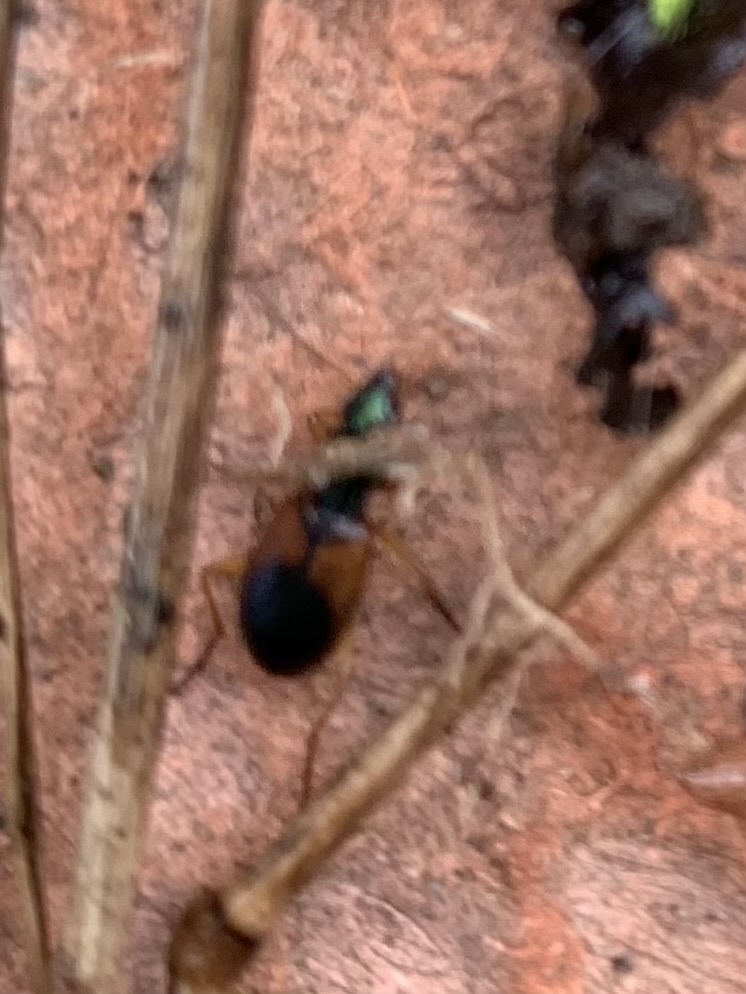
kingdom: Animalia
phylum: Arthropoda
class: Insecta
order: Coleoptera
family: Carabidae
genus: Anchomenus
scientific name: Anchomenus dorsalis
